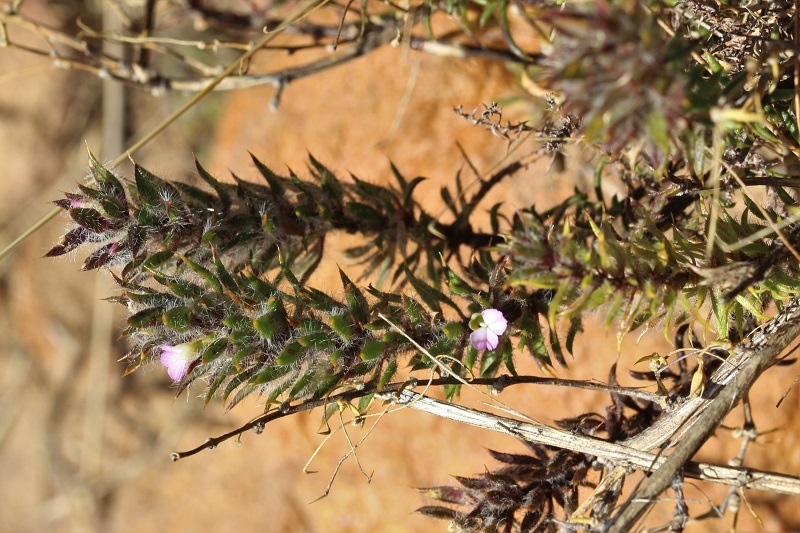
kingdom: Plantae
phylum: Tracheophyta
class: Magnoliopsida
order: Fabales
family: Polygalaceae
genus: Muraltia
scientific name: Muraltia aspalatha
